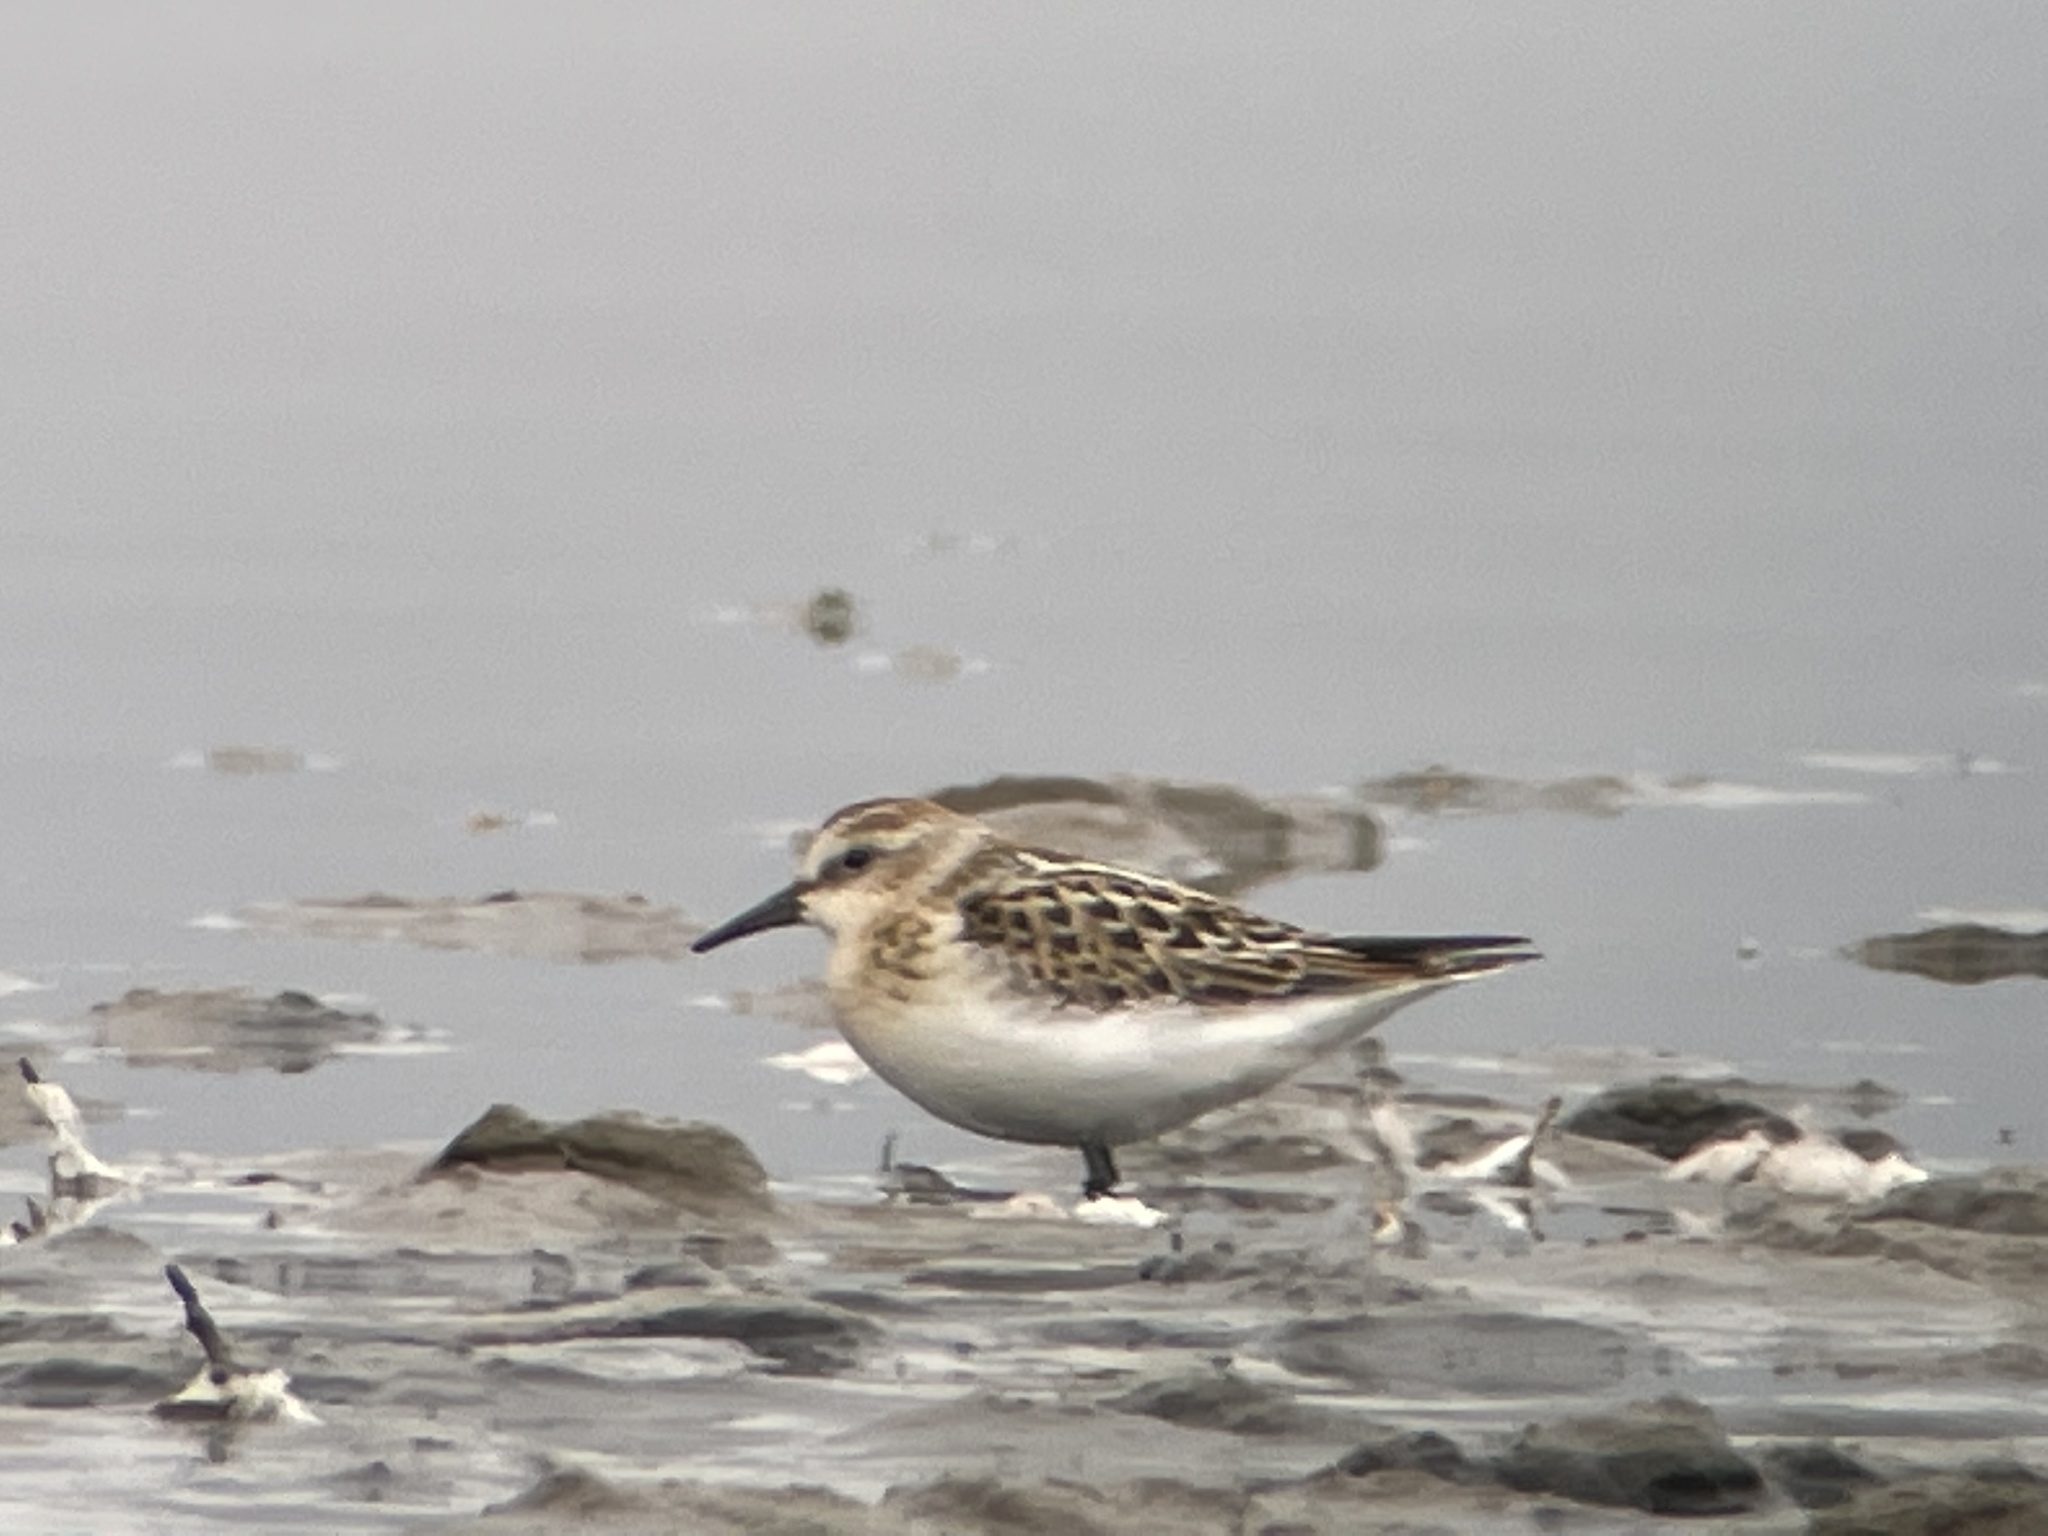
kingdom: Animalia
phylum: Chordata
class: Aves
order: Charadriiformes
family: Scolopacidae
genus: Calidris
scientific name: Calidris minuta
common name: Little stint
